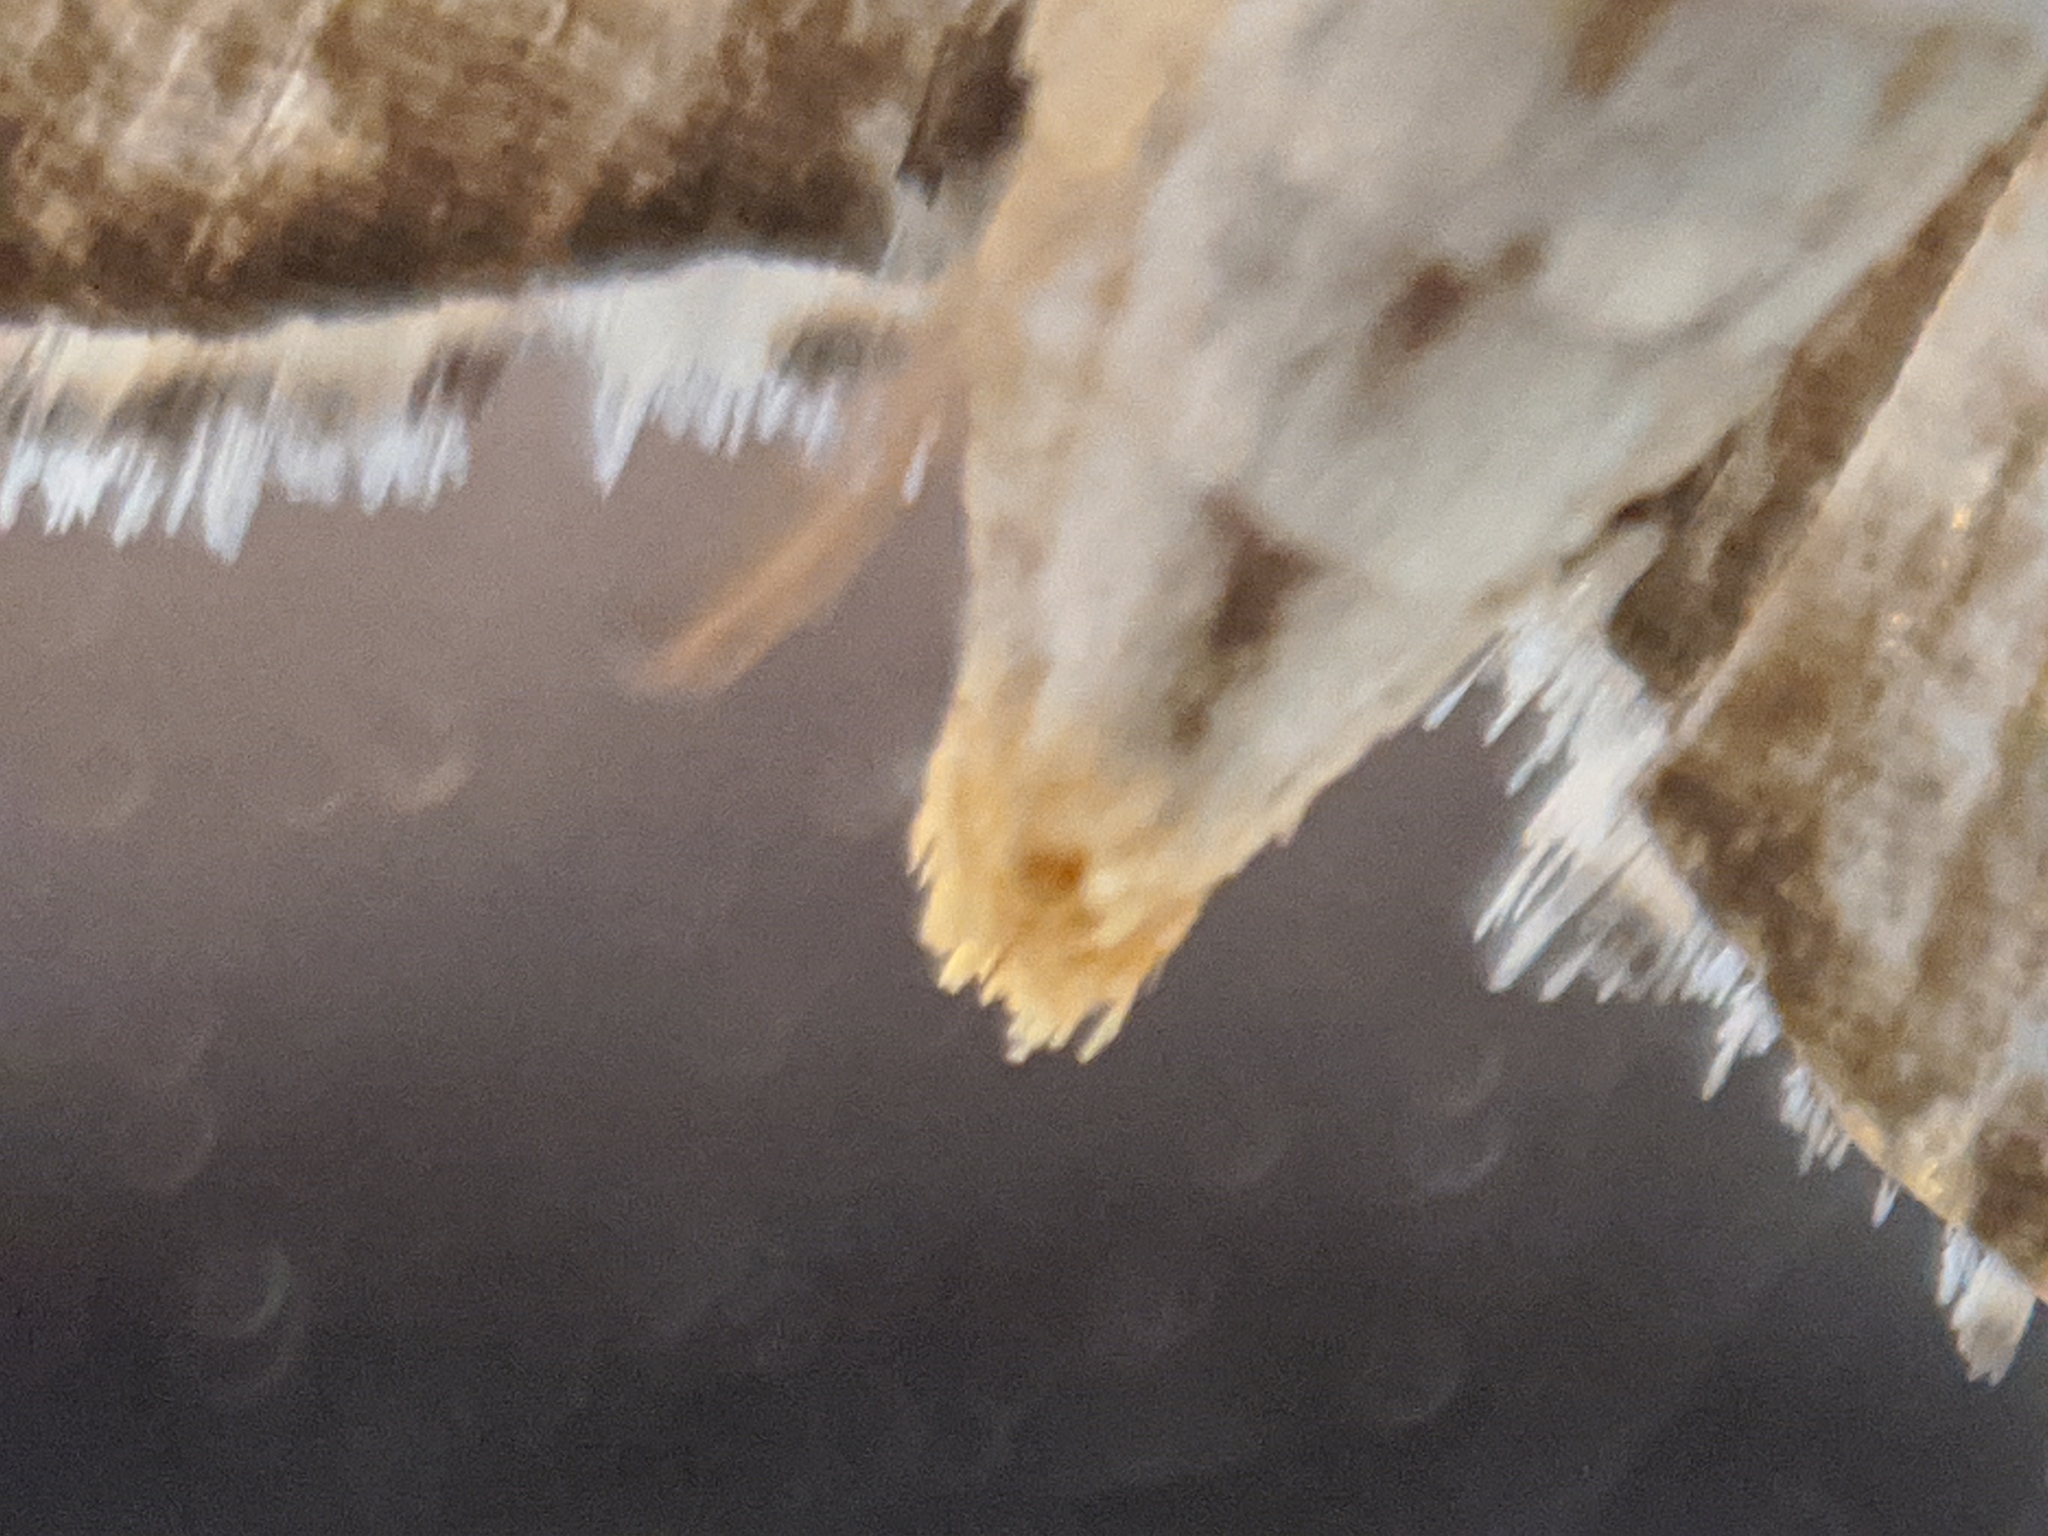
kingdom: Animalia
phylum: Arthropoda
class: Insecta
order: Lepidoptera
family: Crambidae
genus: Spoladea
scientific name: Spoladea recurvalis
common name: Beet webworm moth
